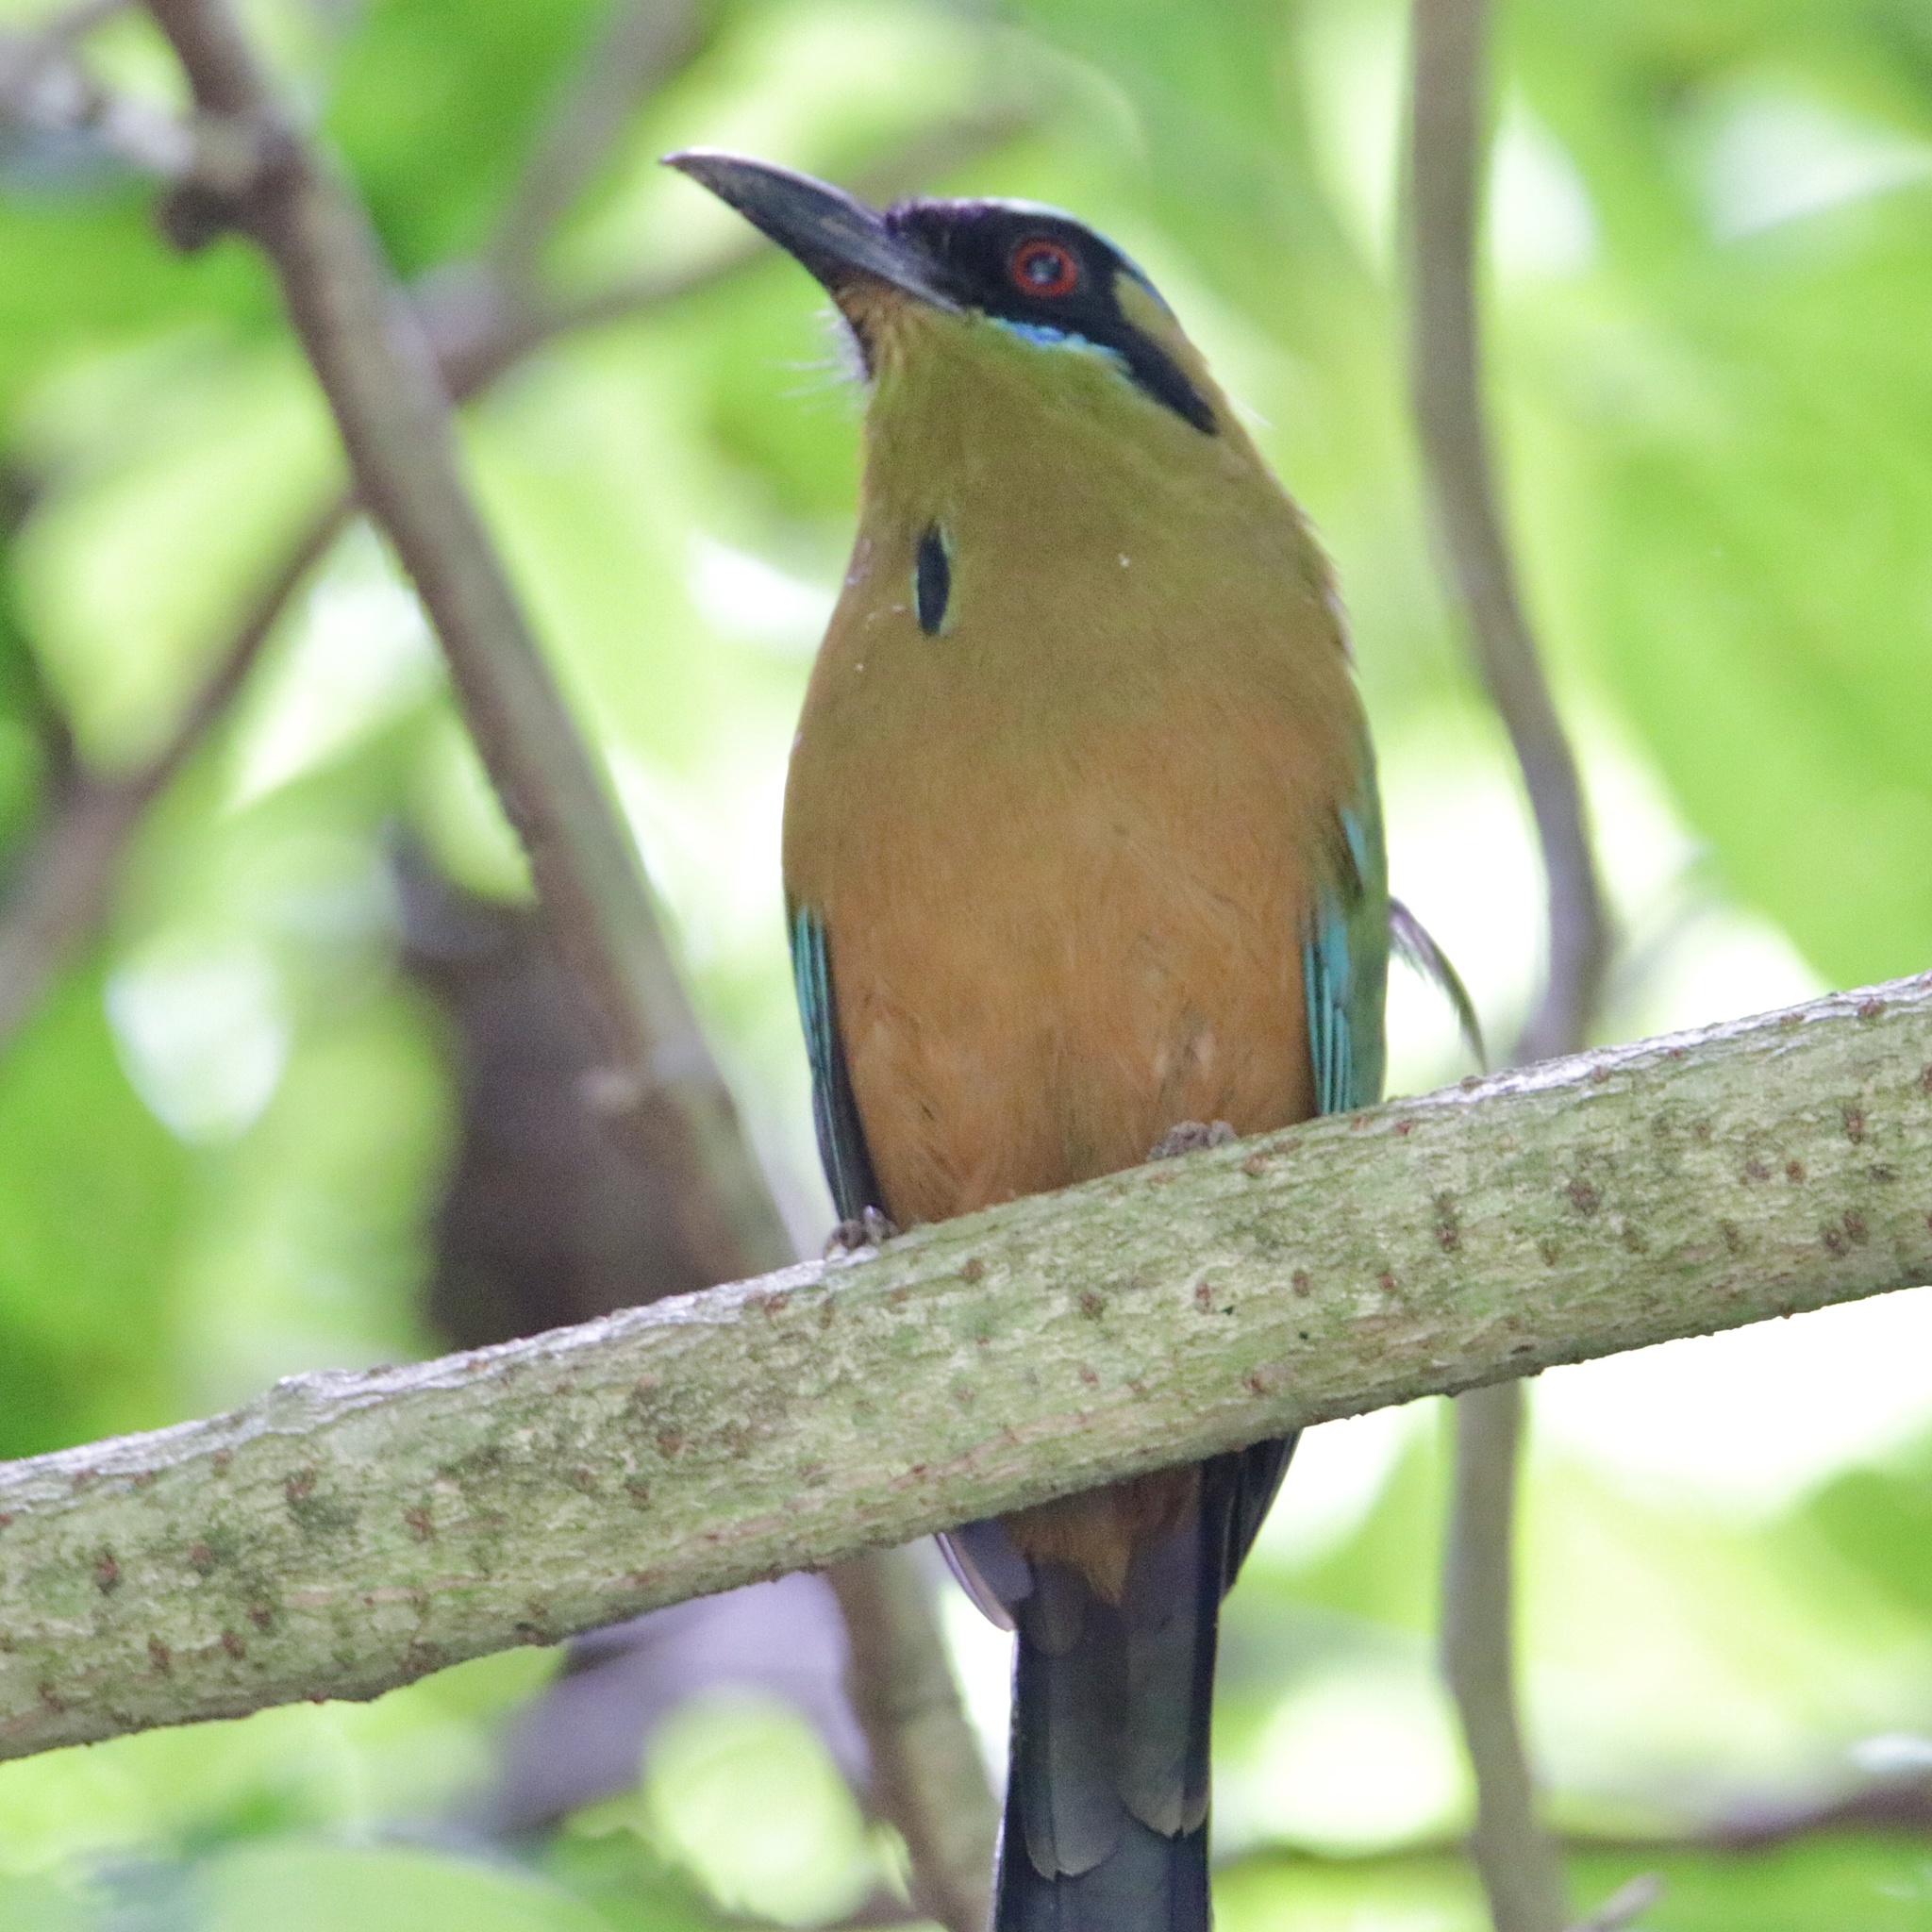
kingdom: Animalia
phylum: Chordata
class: Aves
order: Coraciiformes
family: Momotidae
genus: Momotus
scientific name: Momotus subrufescens
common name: Whooping motmot
